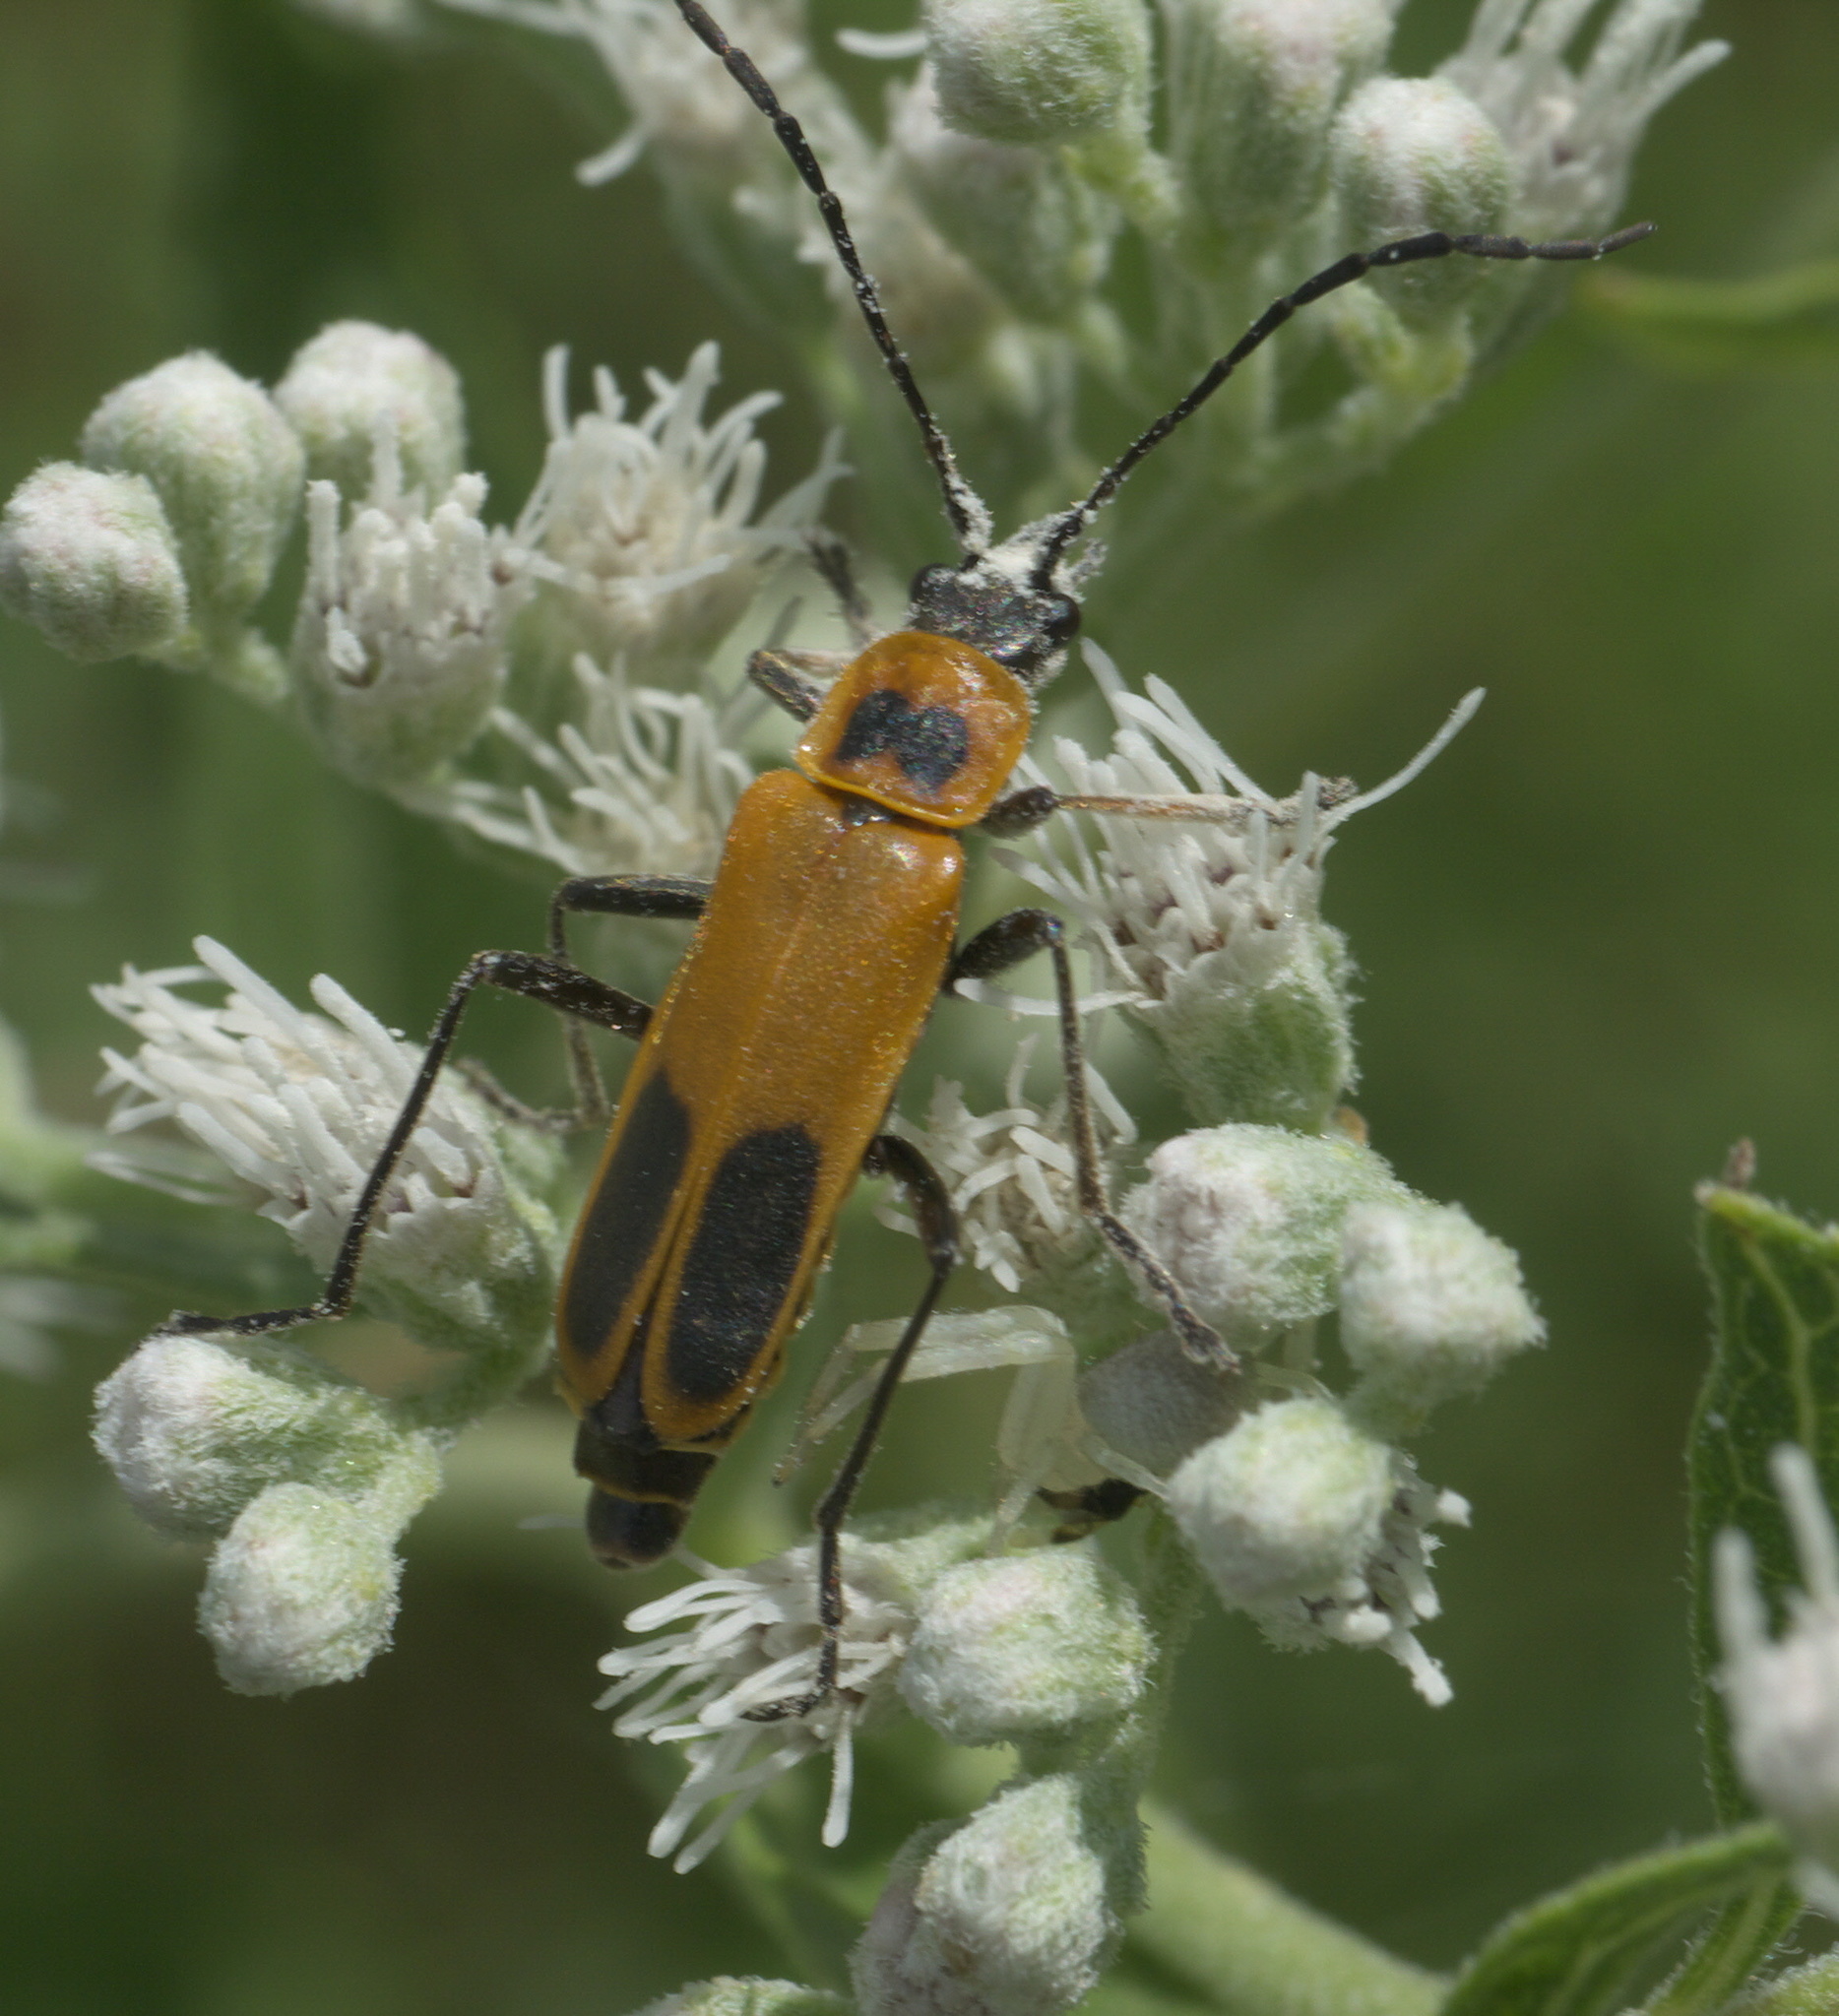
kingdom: Animalia
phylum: Arthropoda
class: Insecta
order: Coleoptera
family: Cantharidae
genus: Chauliognathus
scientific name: Chauliognathus pensylvanicus
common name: Goldenrod soldier beetle
